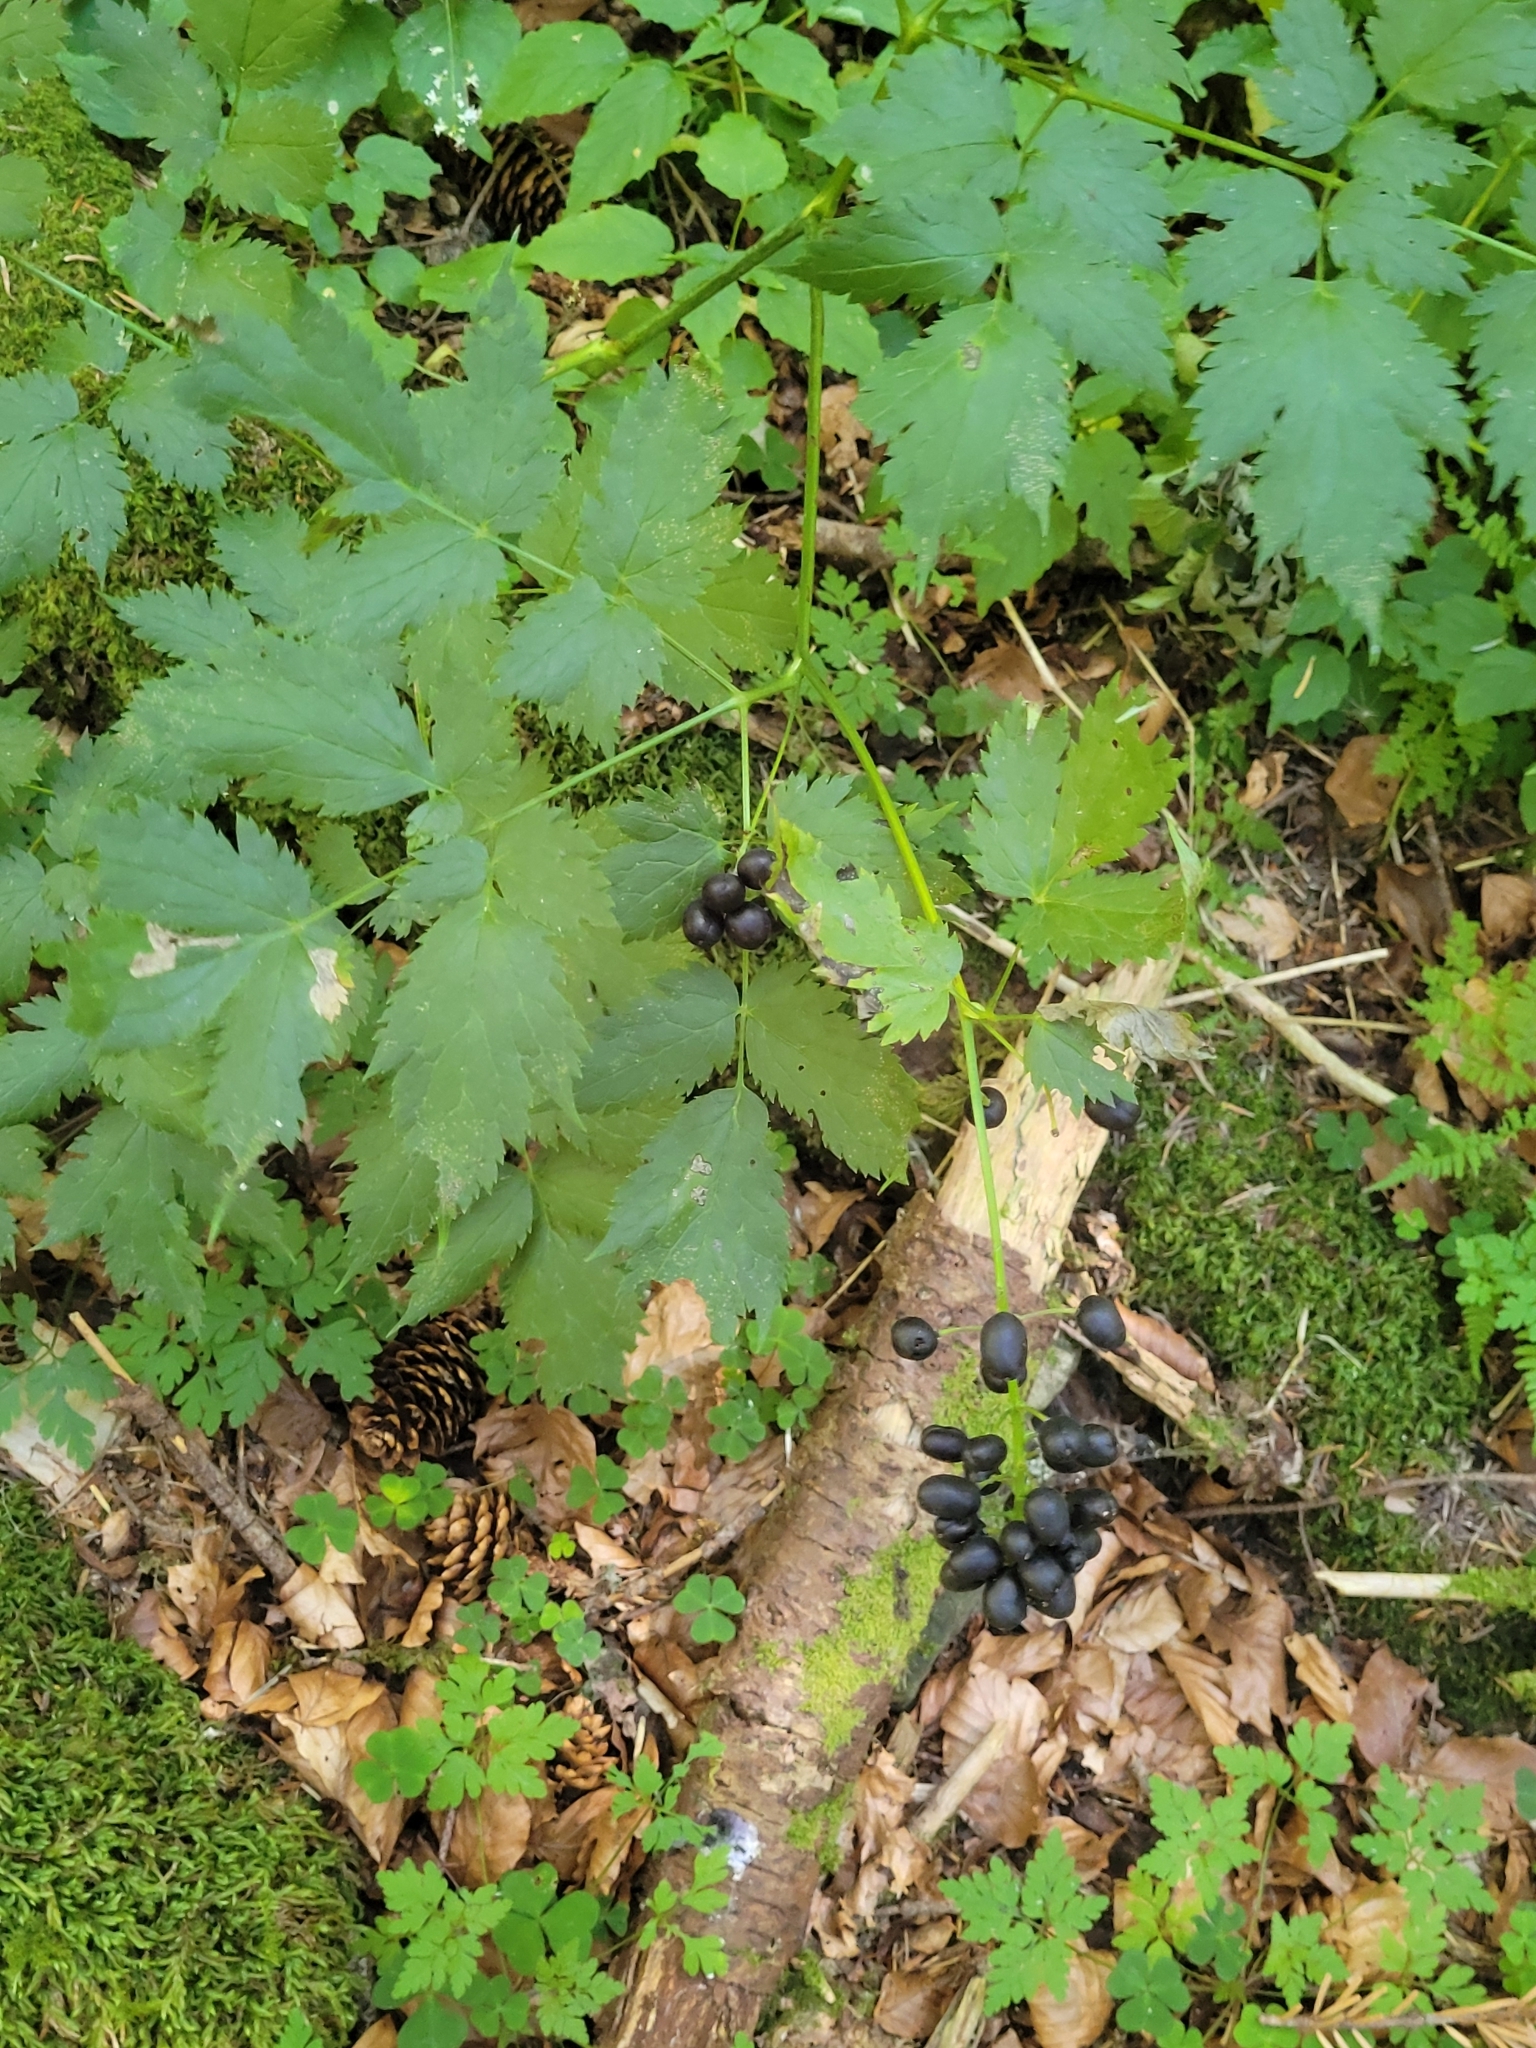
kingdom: Plantae
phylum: Tracheophyta
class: Magnoliopsida
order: Ranunculales
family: Ranunculaceae
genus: Actaea
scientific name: Actaea spicata
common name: Baneberry
